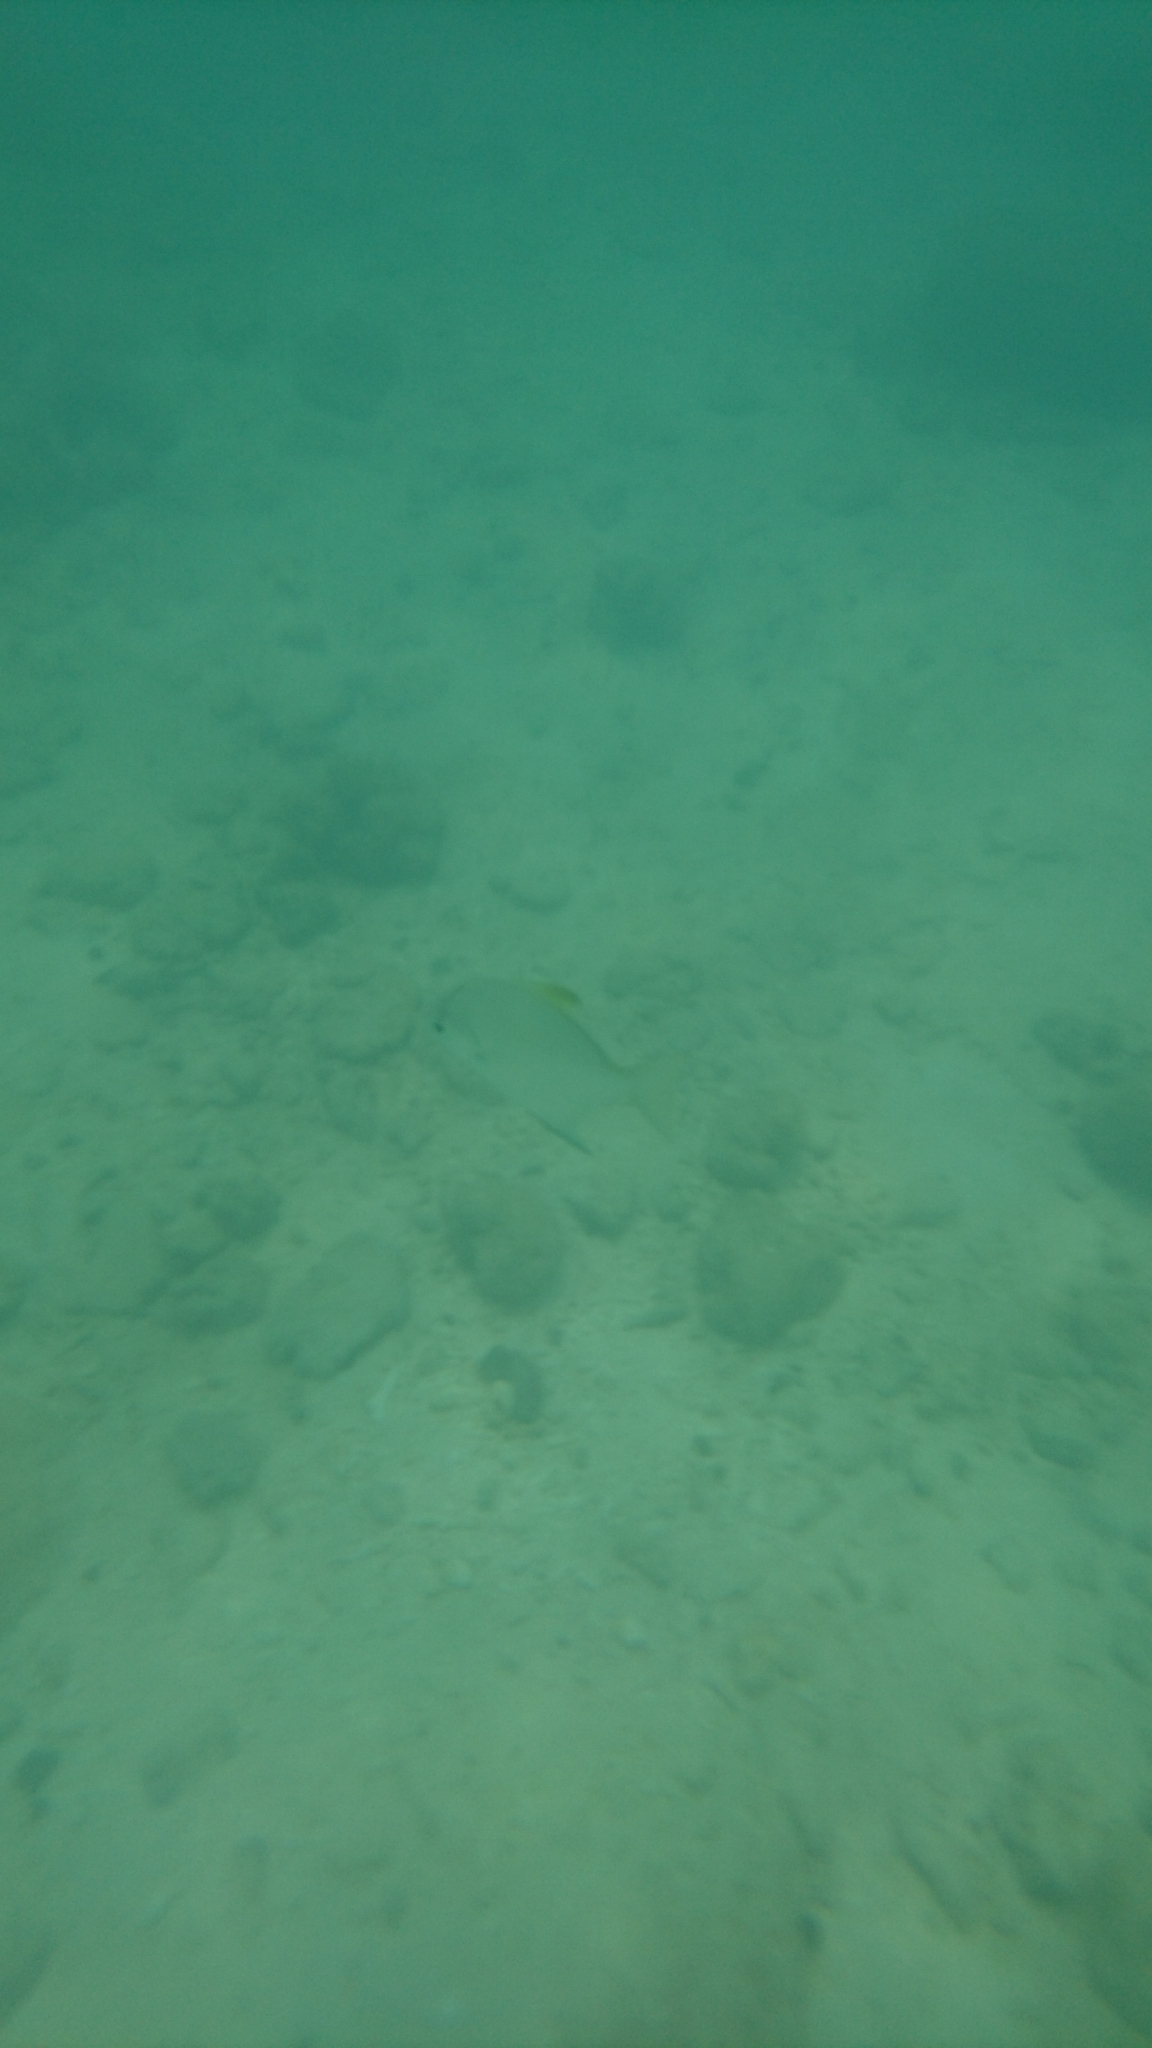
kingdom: Animalia
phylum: Chordata
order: Perciformes
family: Monodactylidae
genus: Monodactylus
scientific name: Monodactylus argenteus
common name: Silver moony
